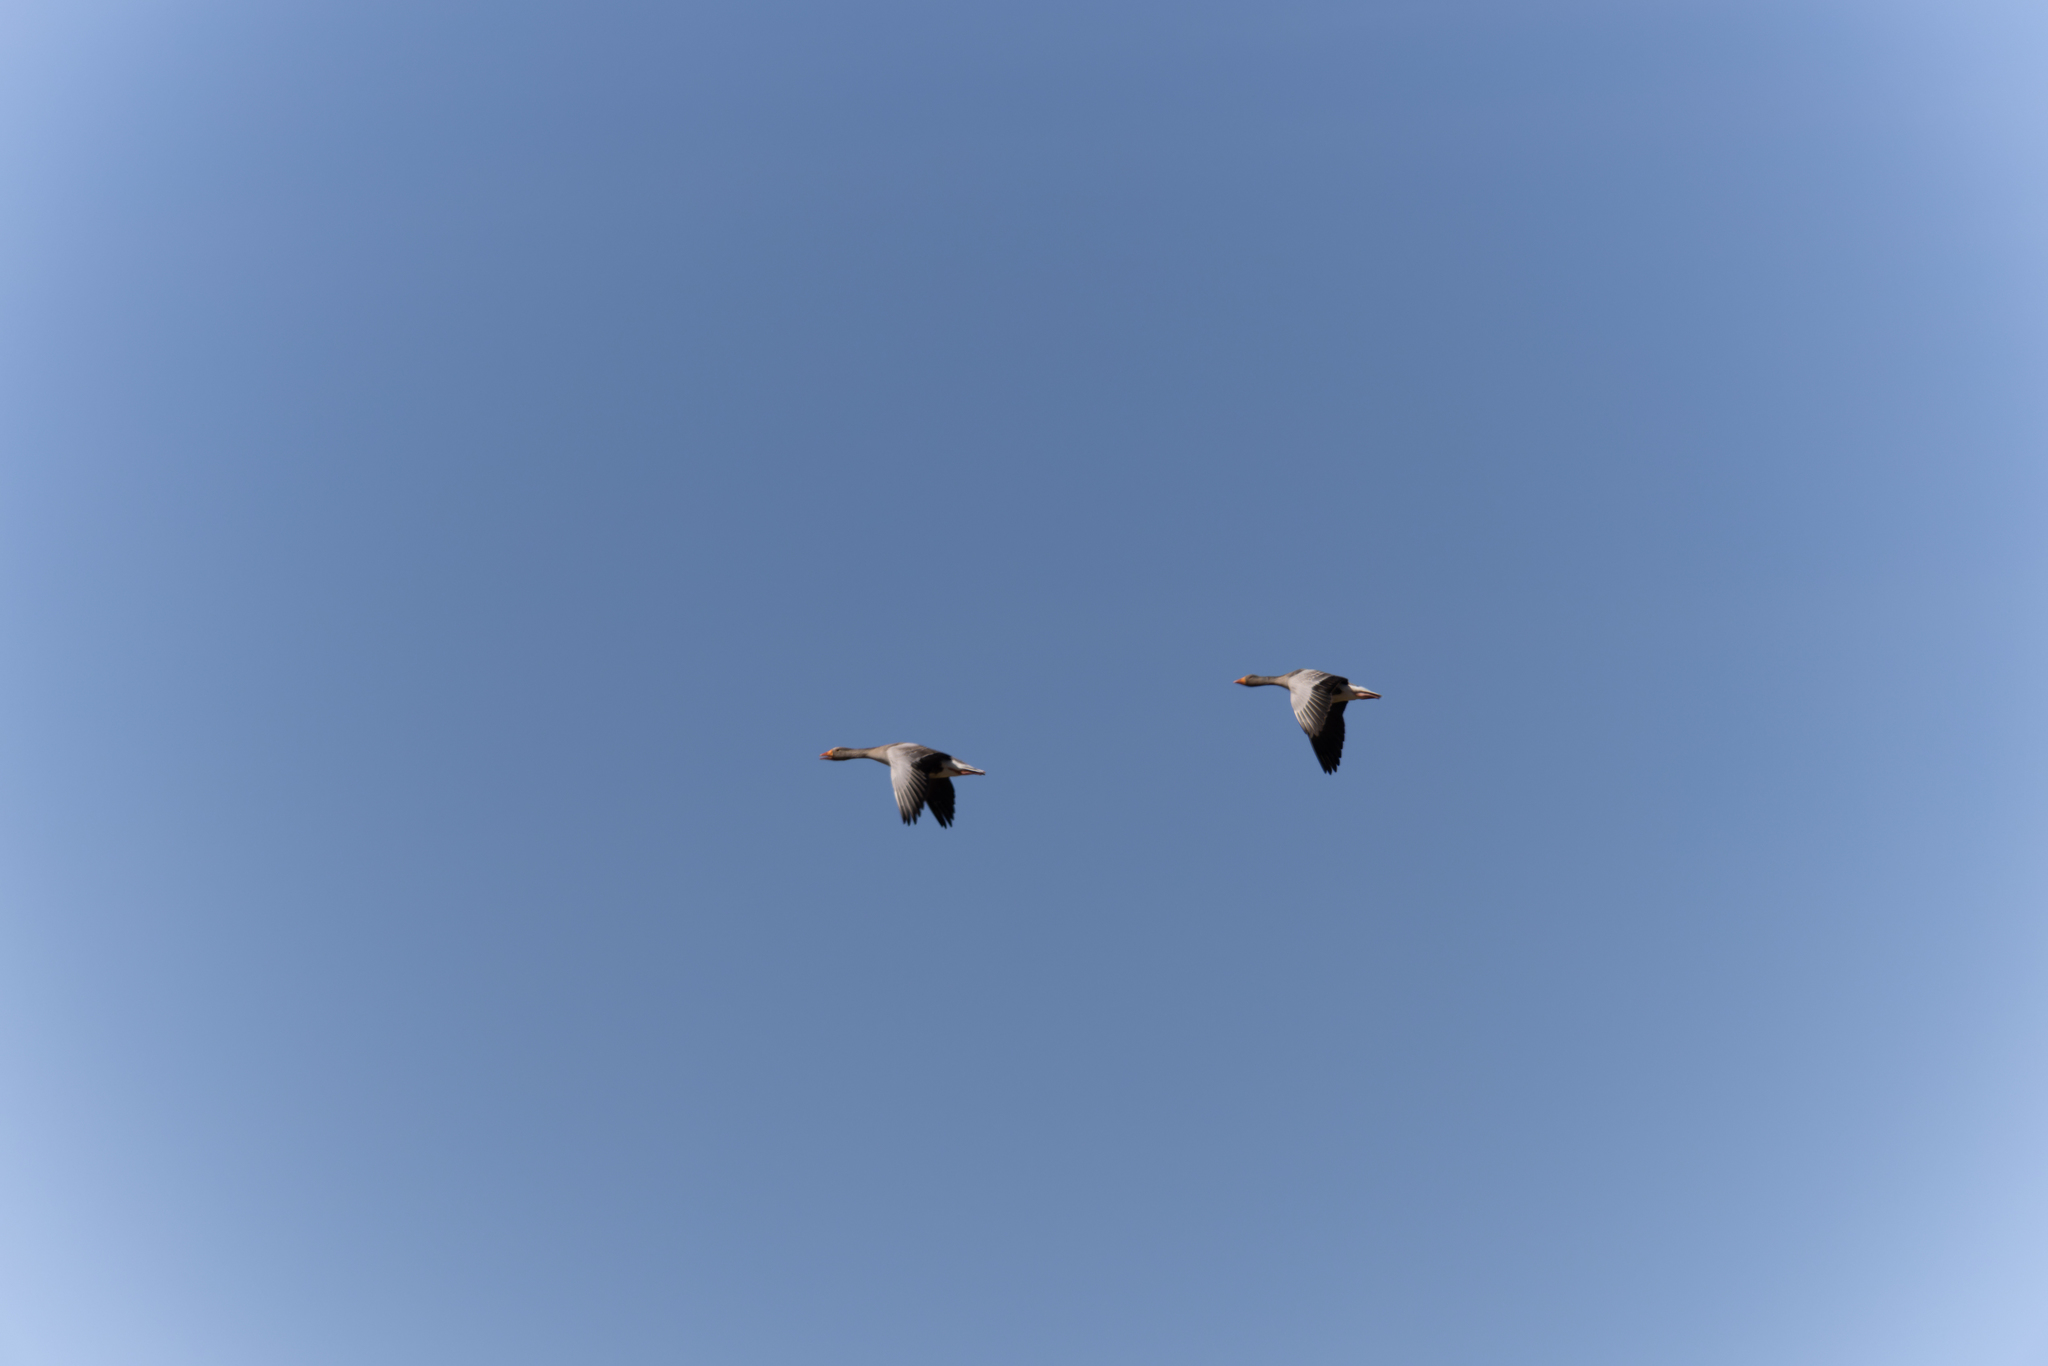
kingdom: Animalia
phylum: Chordata
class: Aves
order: Anseriformes
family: Anatidae
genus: Anser
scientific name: Anser anser
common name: Greylag goose
